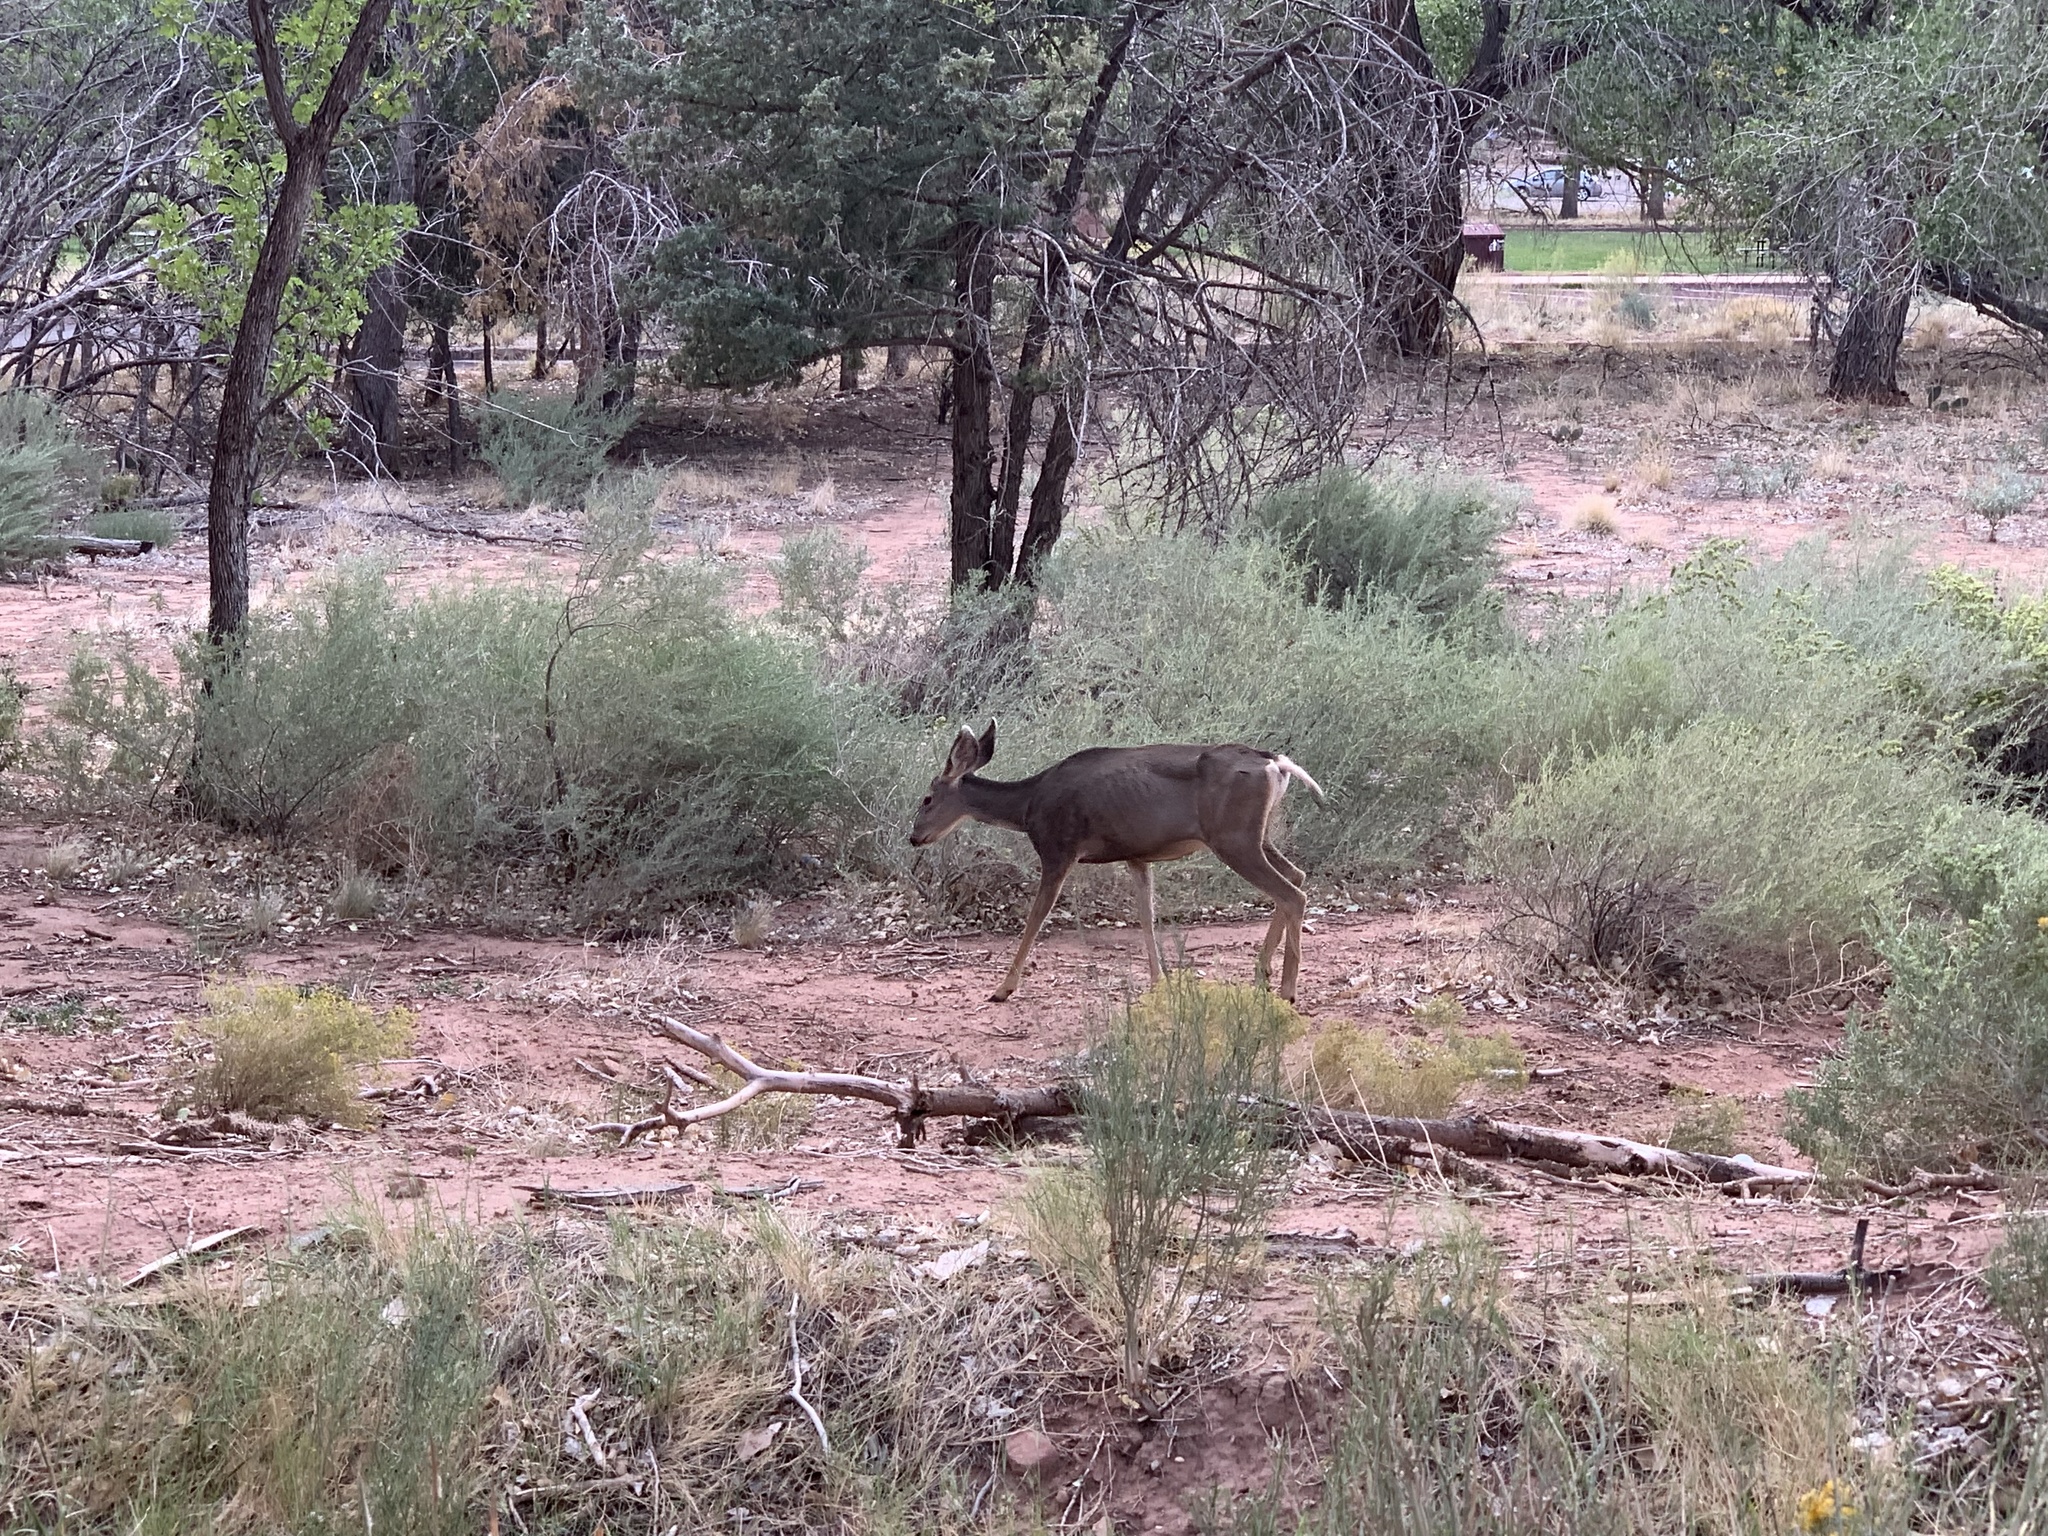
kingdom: Animalia
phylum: Chordata
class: Mammalia
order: Artiodactyla
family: Cervidae
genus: Odocoileus
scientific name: Odocoileus hemionus
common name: Mule deer
